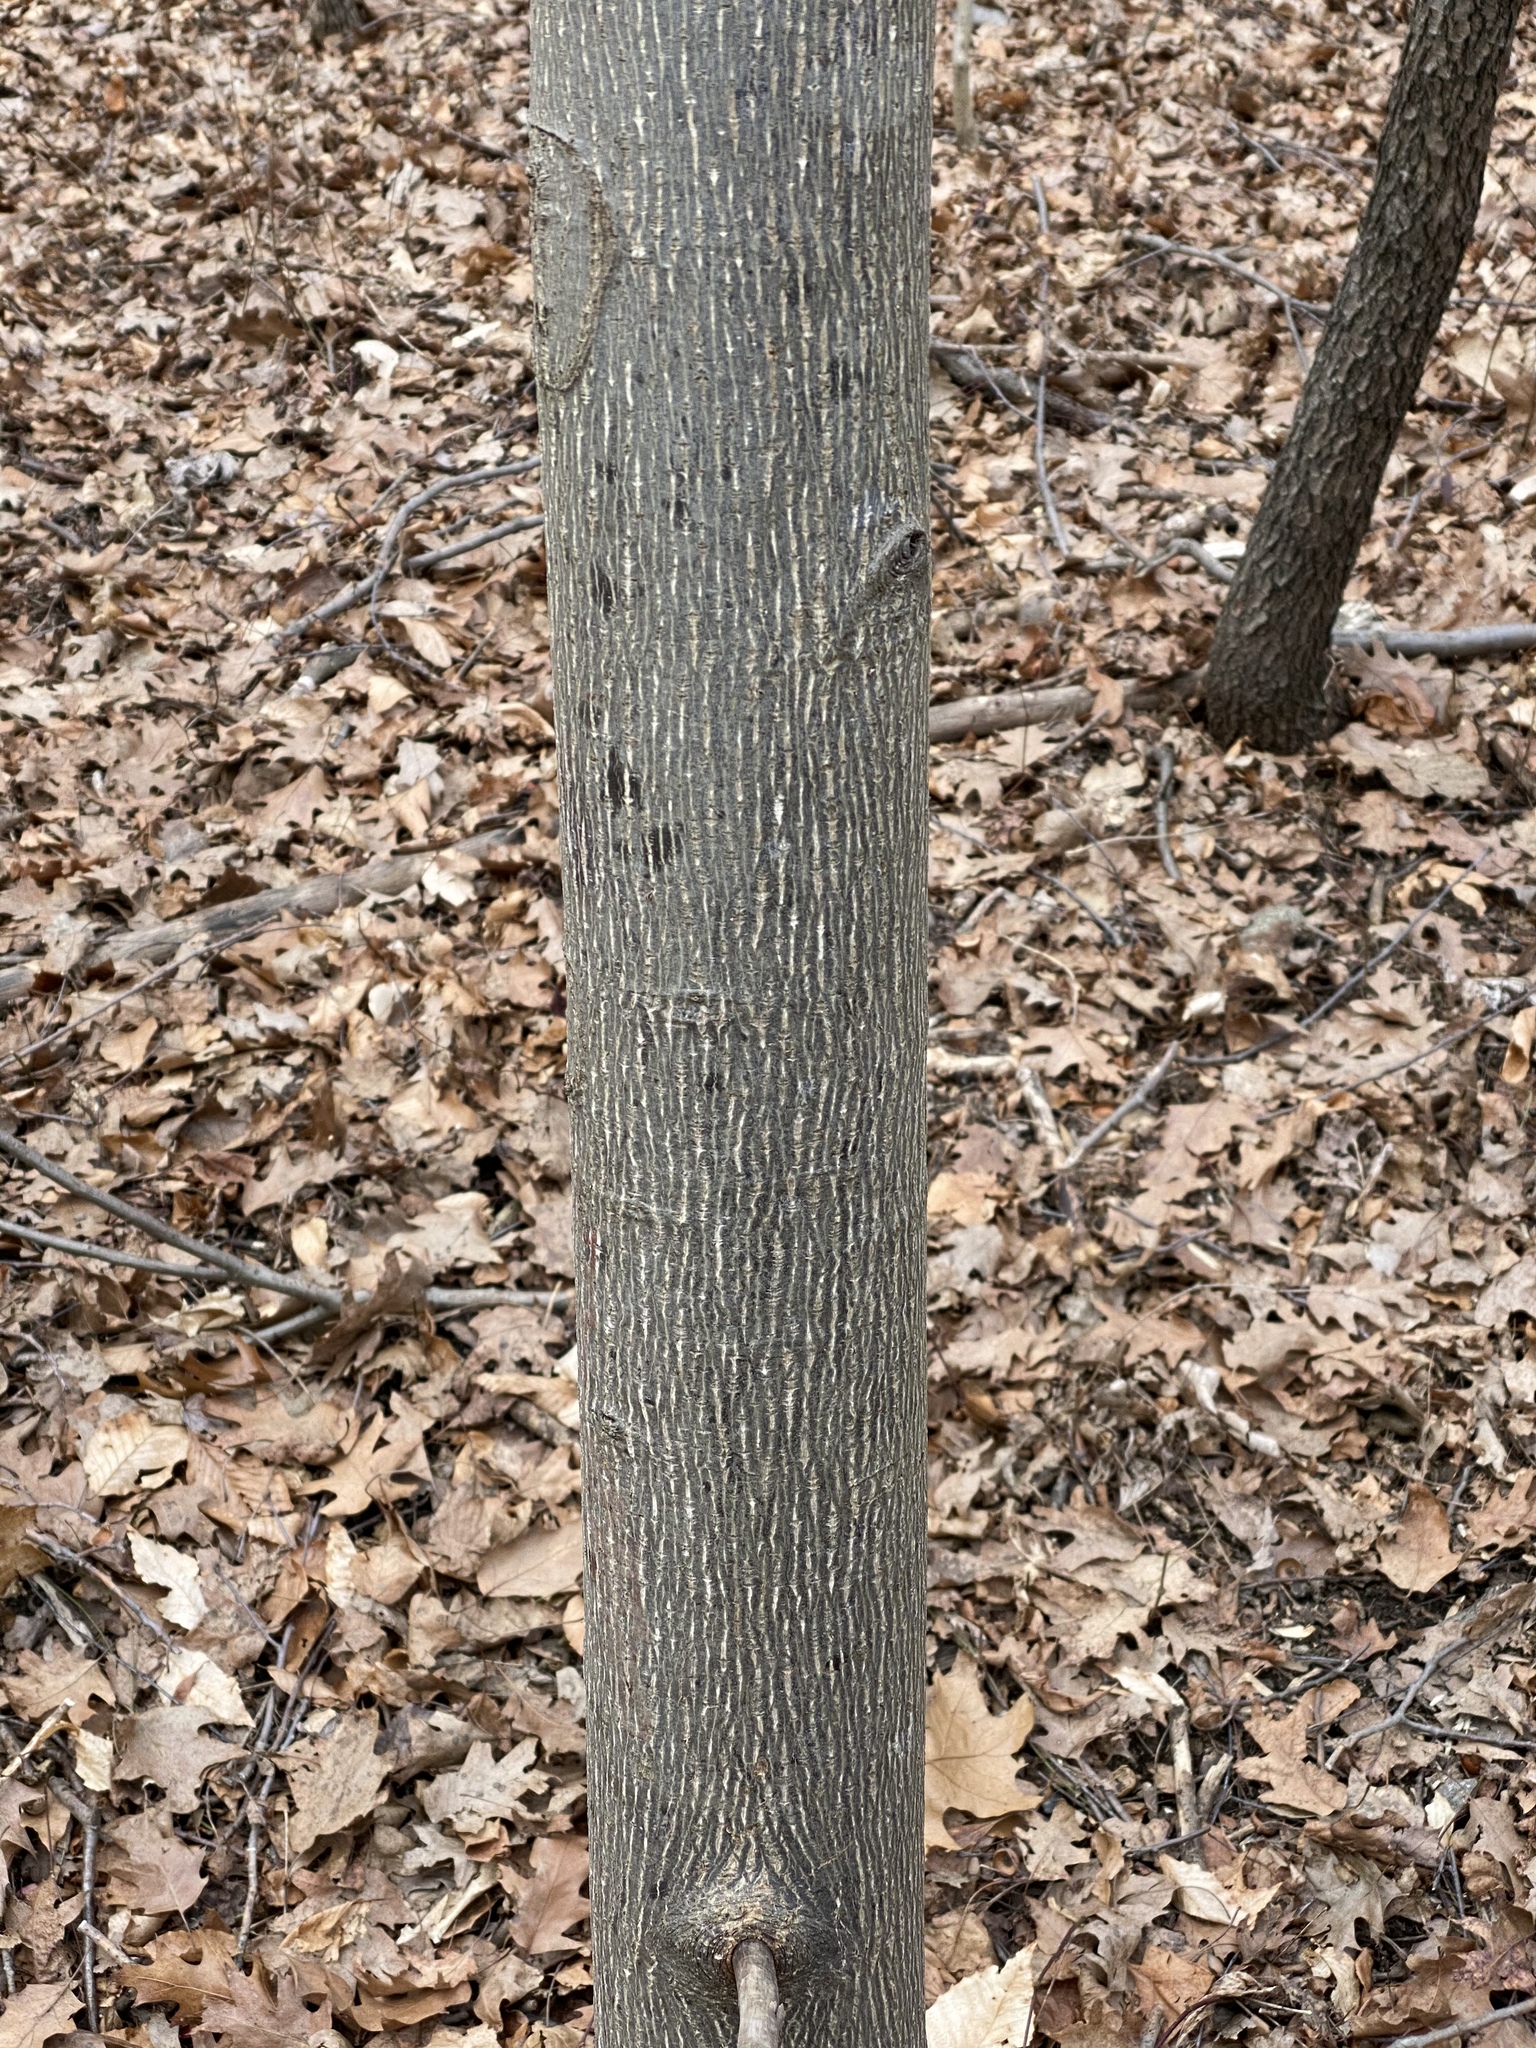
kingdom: Plantae
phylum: Tracheophyta
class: Magnoliopsida
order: Magnoliales
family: Magnoliaceae
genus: Liriodendron
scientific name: Liriodendron tulipifera
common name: Tulip tree
